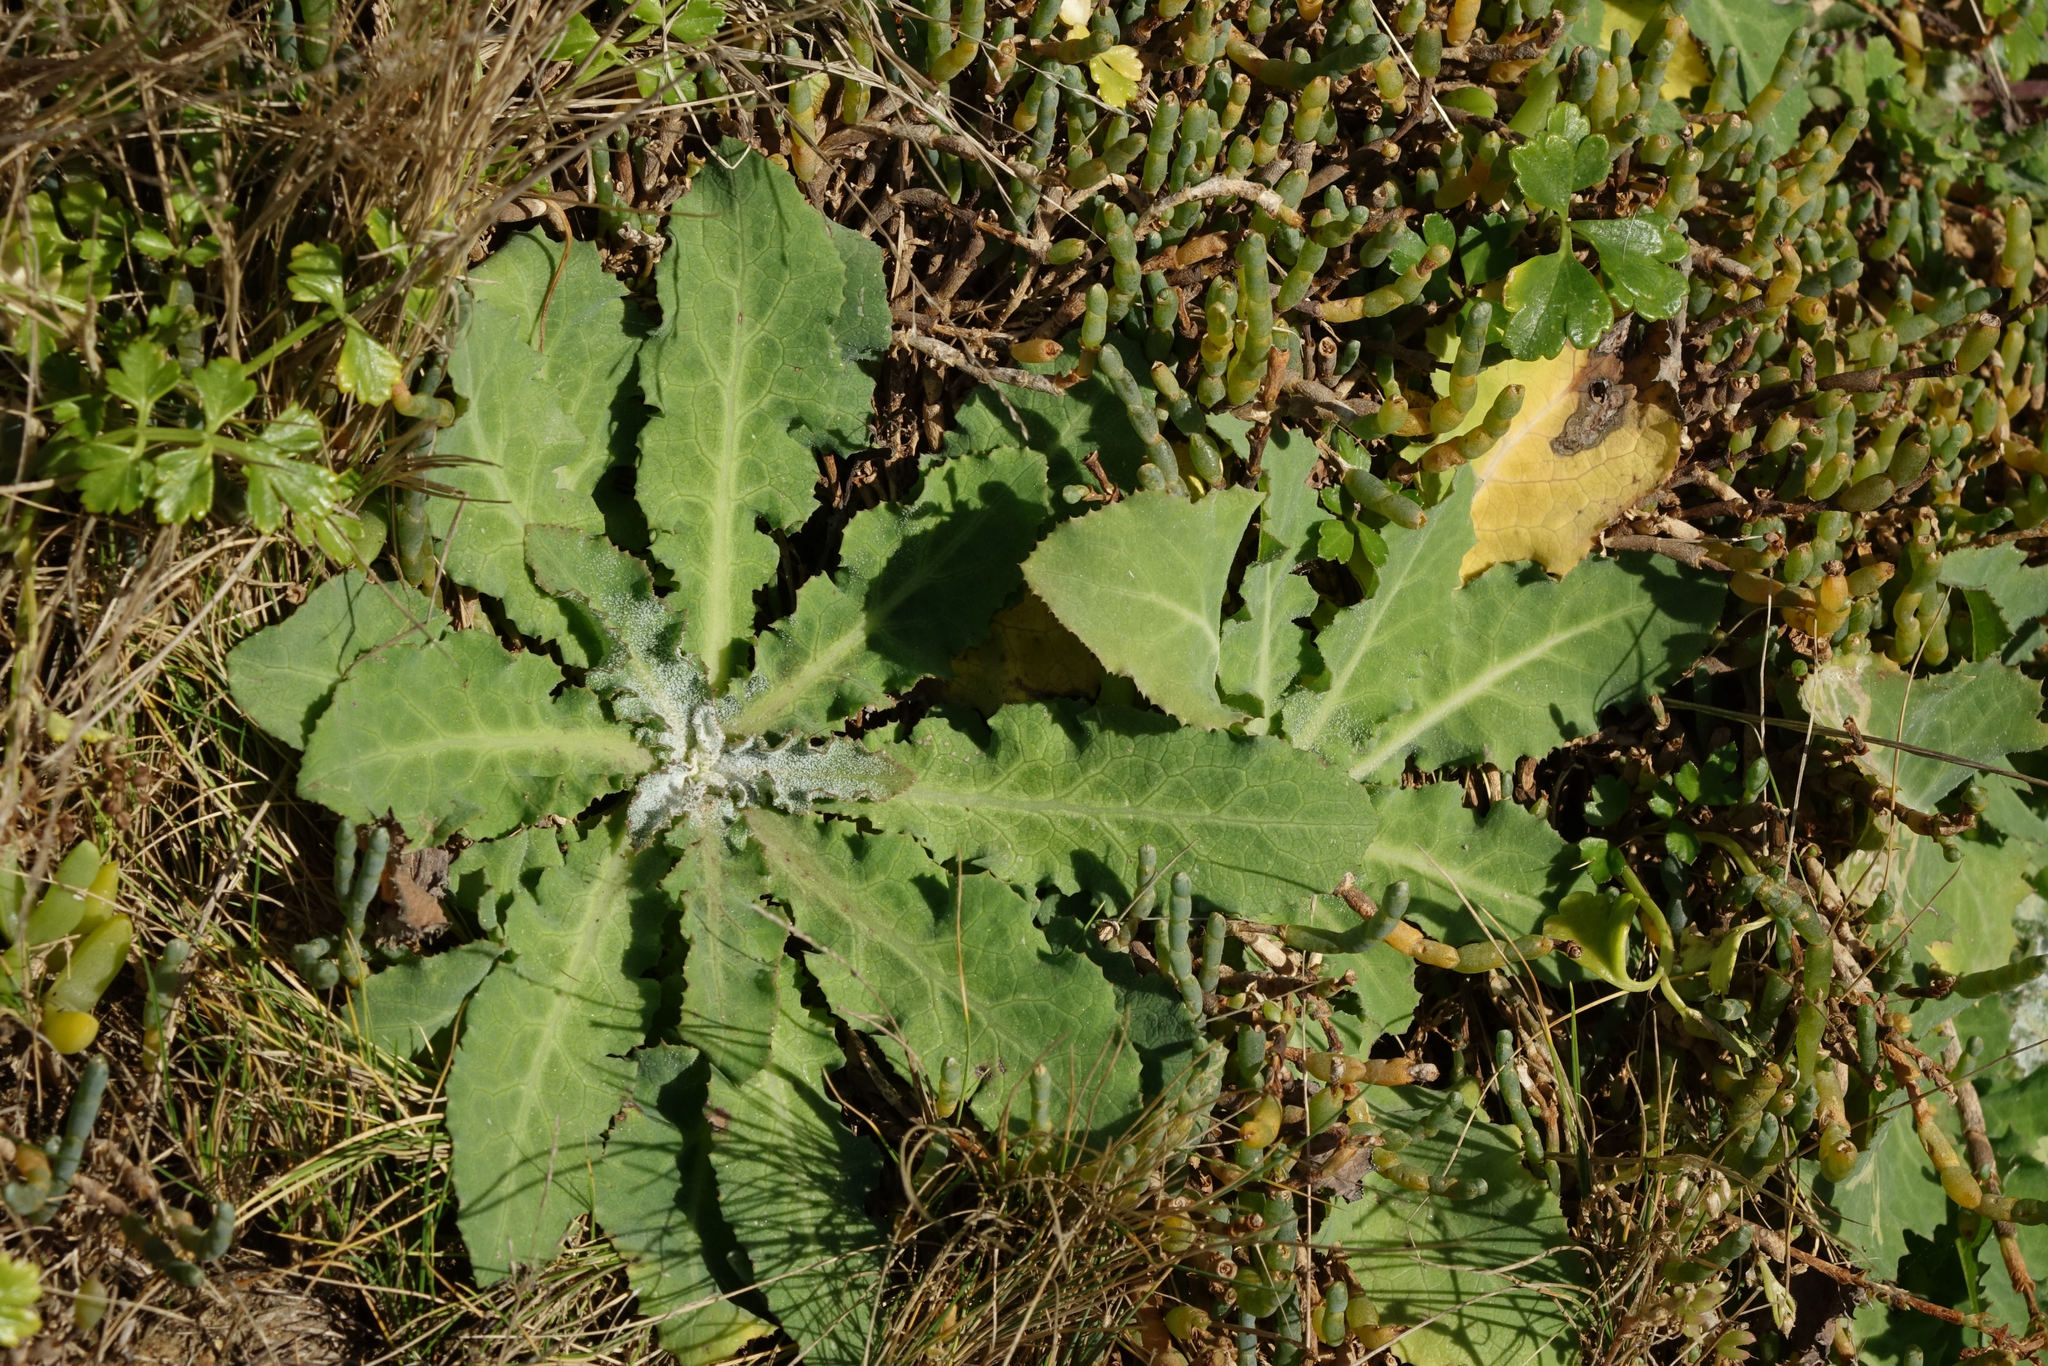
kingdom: Plantae
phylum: Tracheophyta
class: Magnoliopsida
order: Asterales
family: Asteraceae
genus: Sonchus
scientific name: Sonchus kirkii
